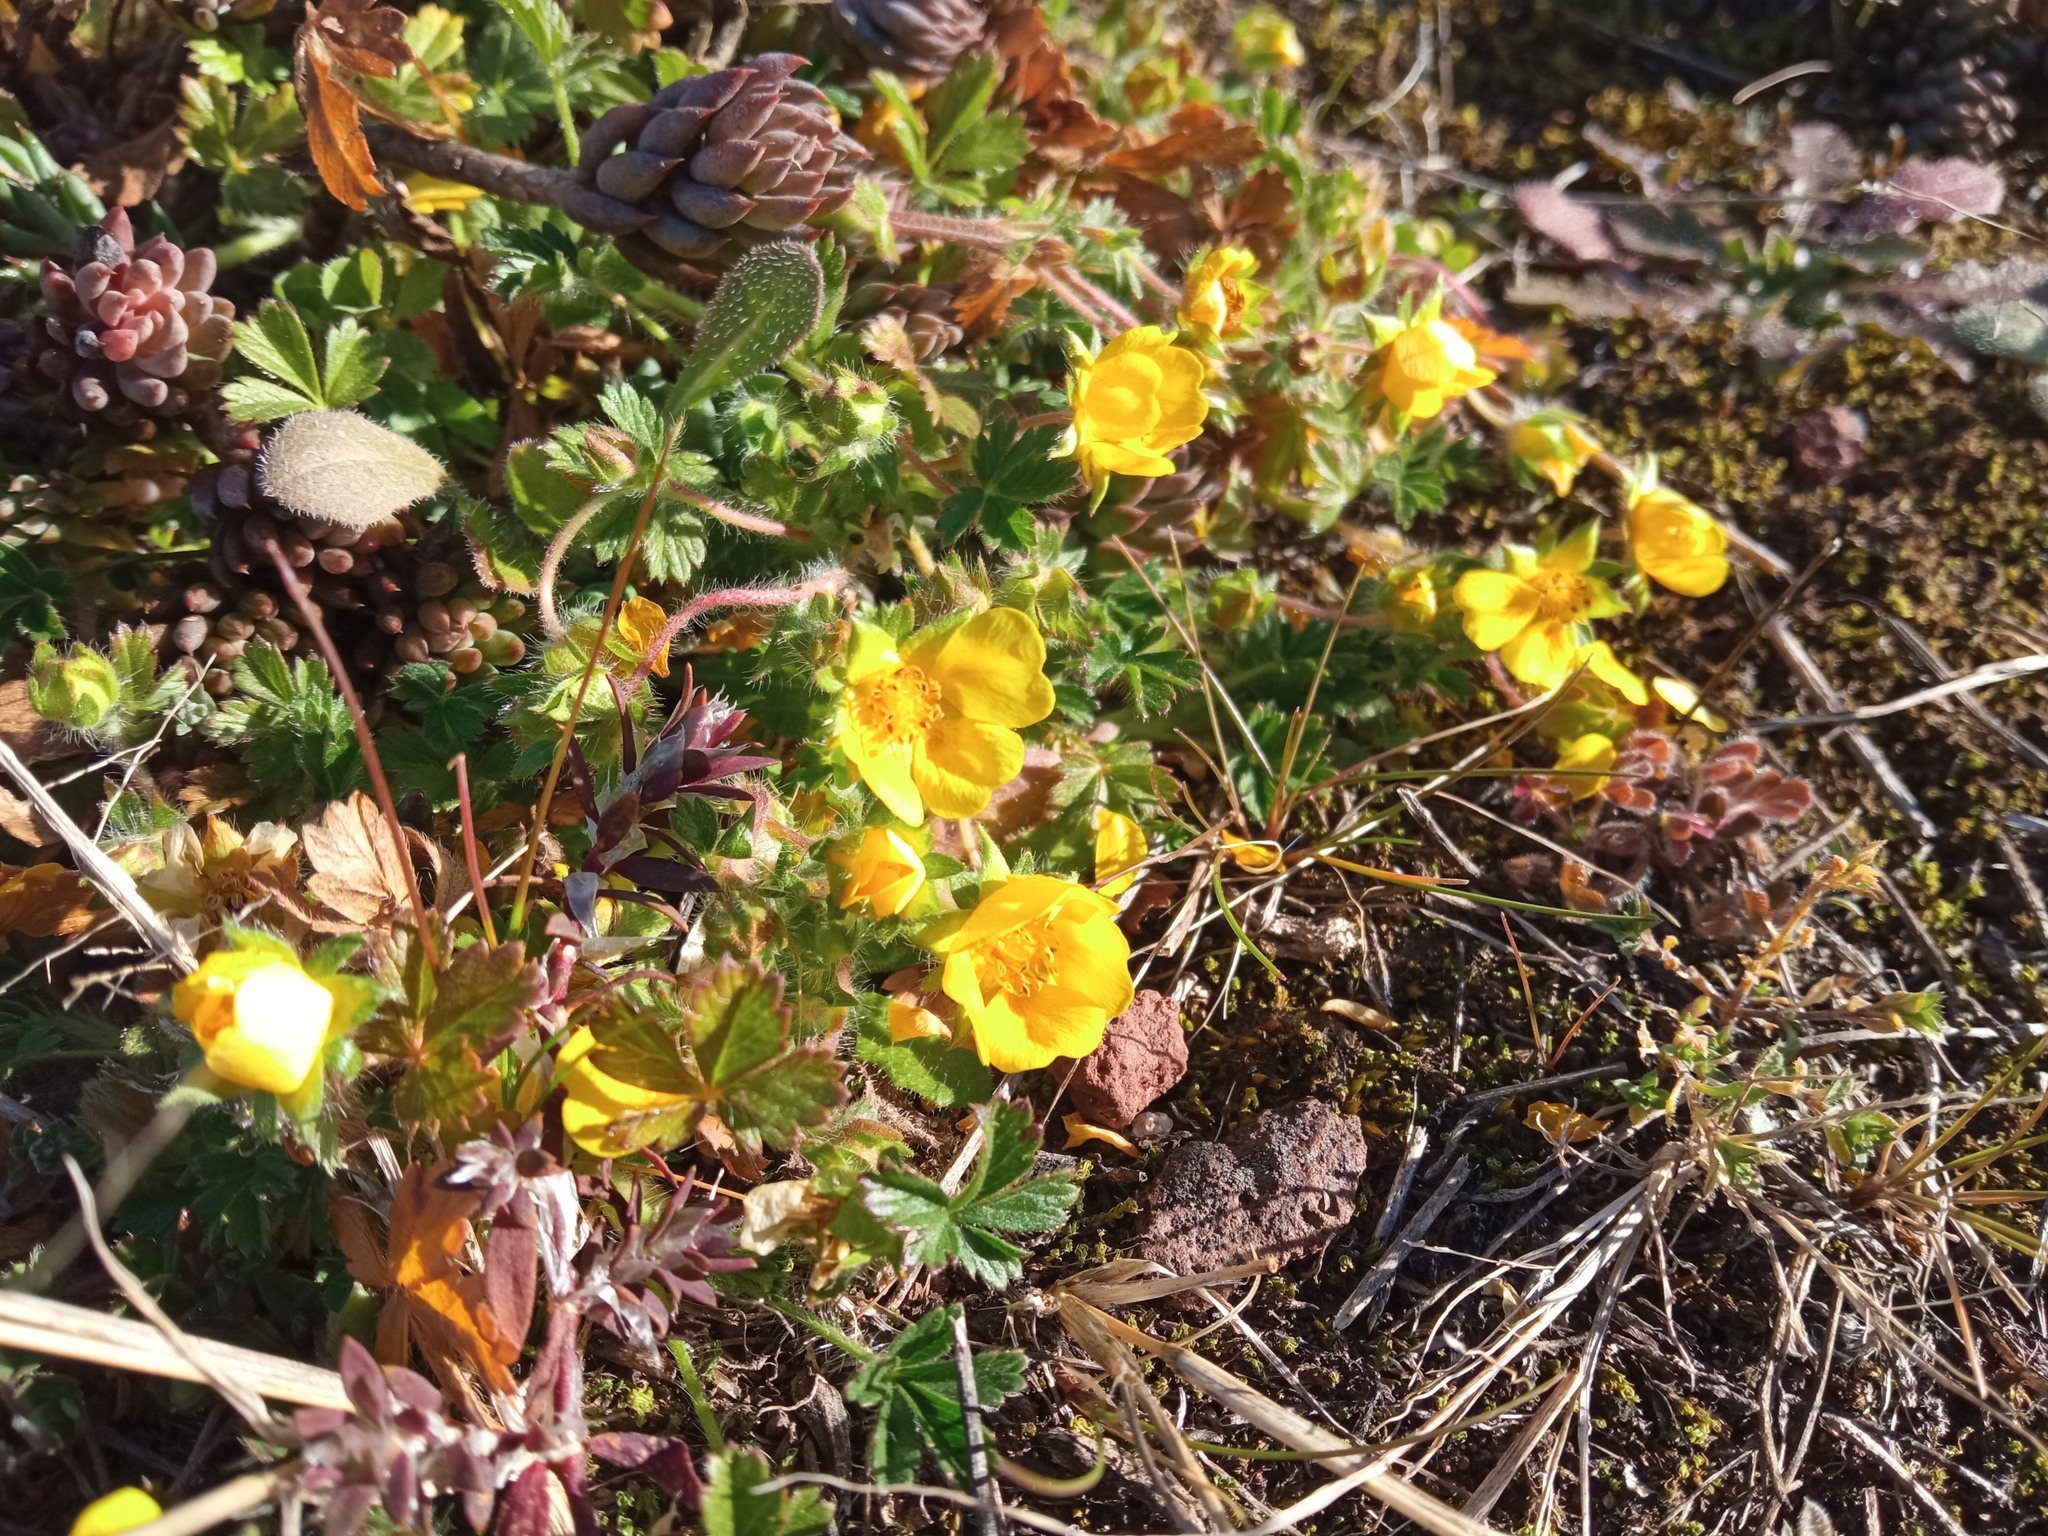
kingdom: Plantae
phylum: Tracheophyta
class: Magnoliopsida
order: Rosales
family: Rosaceae
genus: Potentilla
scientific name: Potentilla verna
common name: Spring cinquefoil
